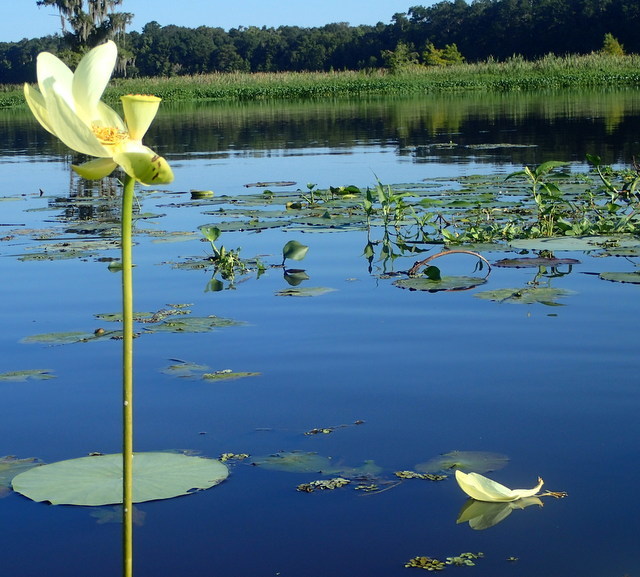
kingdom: Plantae
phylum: Tracheophyta
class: Magnoliopsida
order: Proteales
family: Nelumbonaceae
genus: Nelumbo
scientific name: Nelumbo lutea
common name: American lotus
